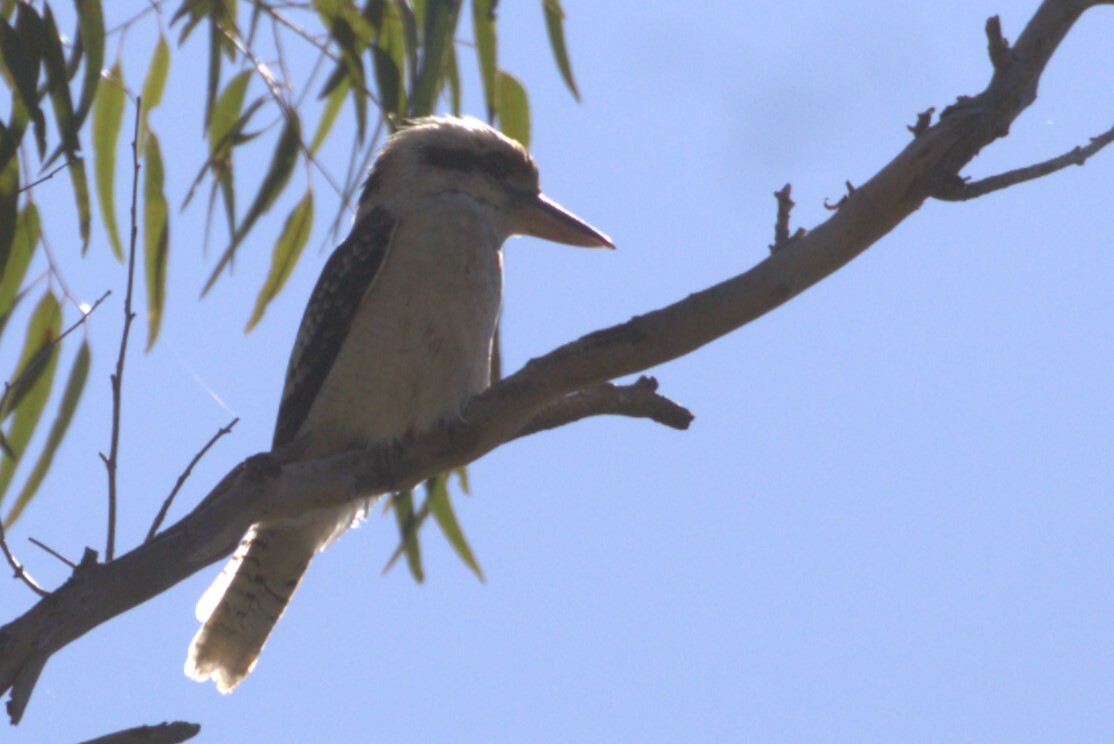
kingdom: Animalia
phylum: Chordata
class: Aves
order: Coraciiformes
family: Alcedinidae
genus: Dacelo
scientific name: Dacelo novaeguineae
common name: Laughing kookaburra
